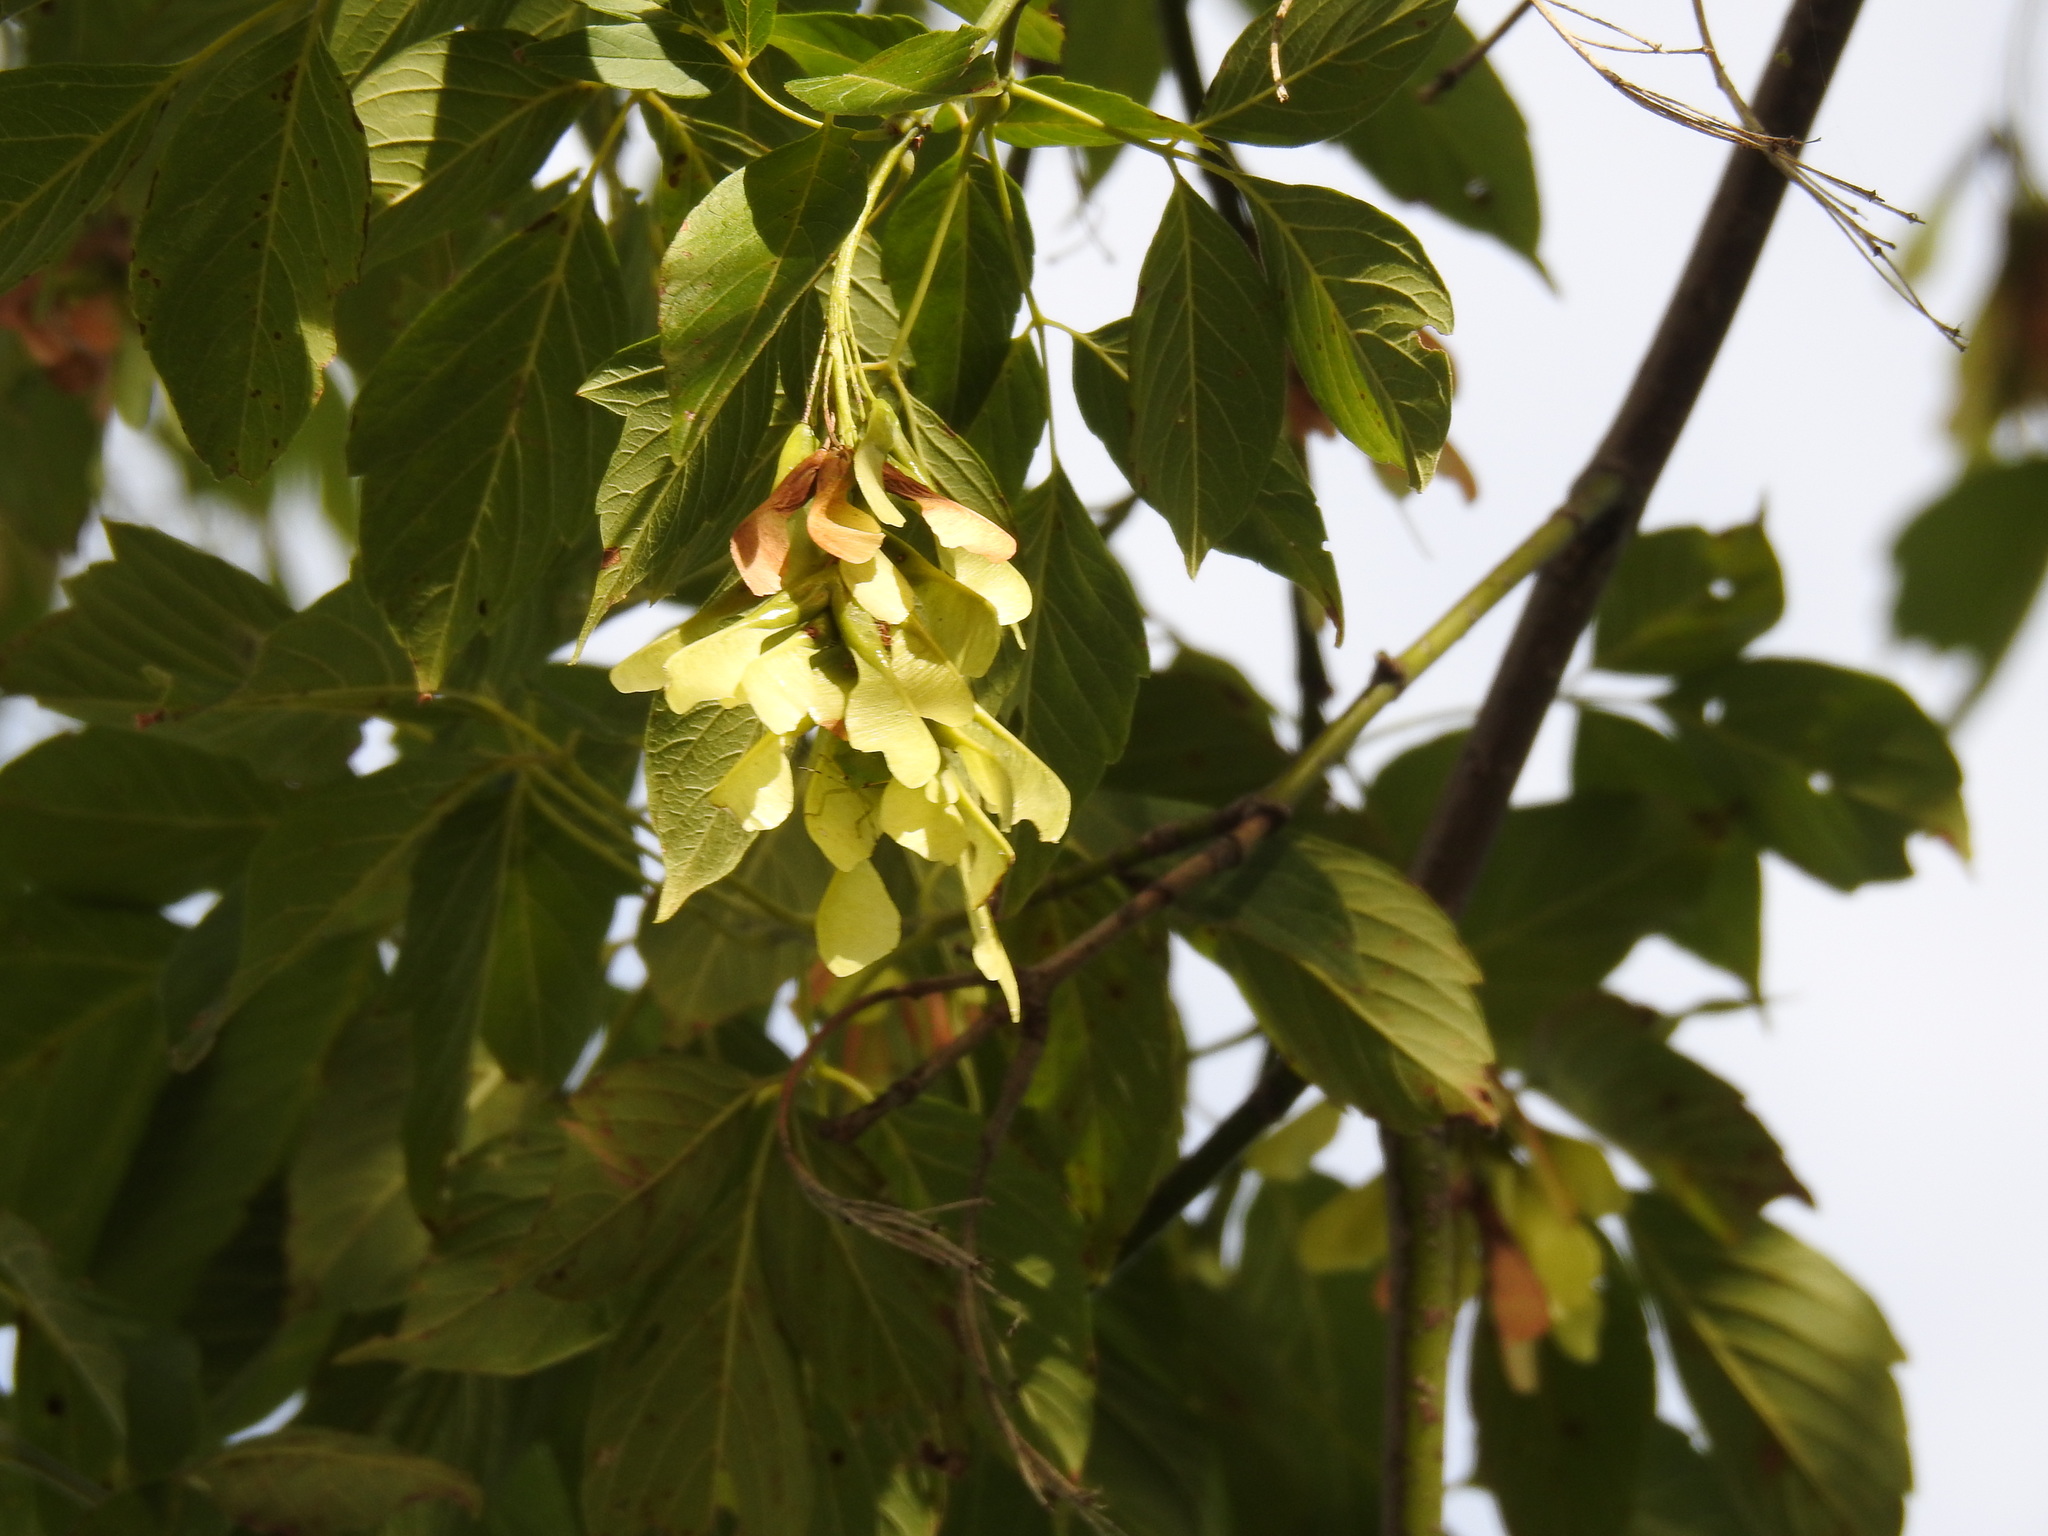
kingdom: Plantae
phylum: Tracheophyta
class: Magnoliopsida
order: Sapindales
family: Sapindaceae
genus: Acer
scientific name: Acer negundo
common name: Ashleaf maple
